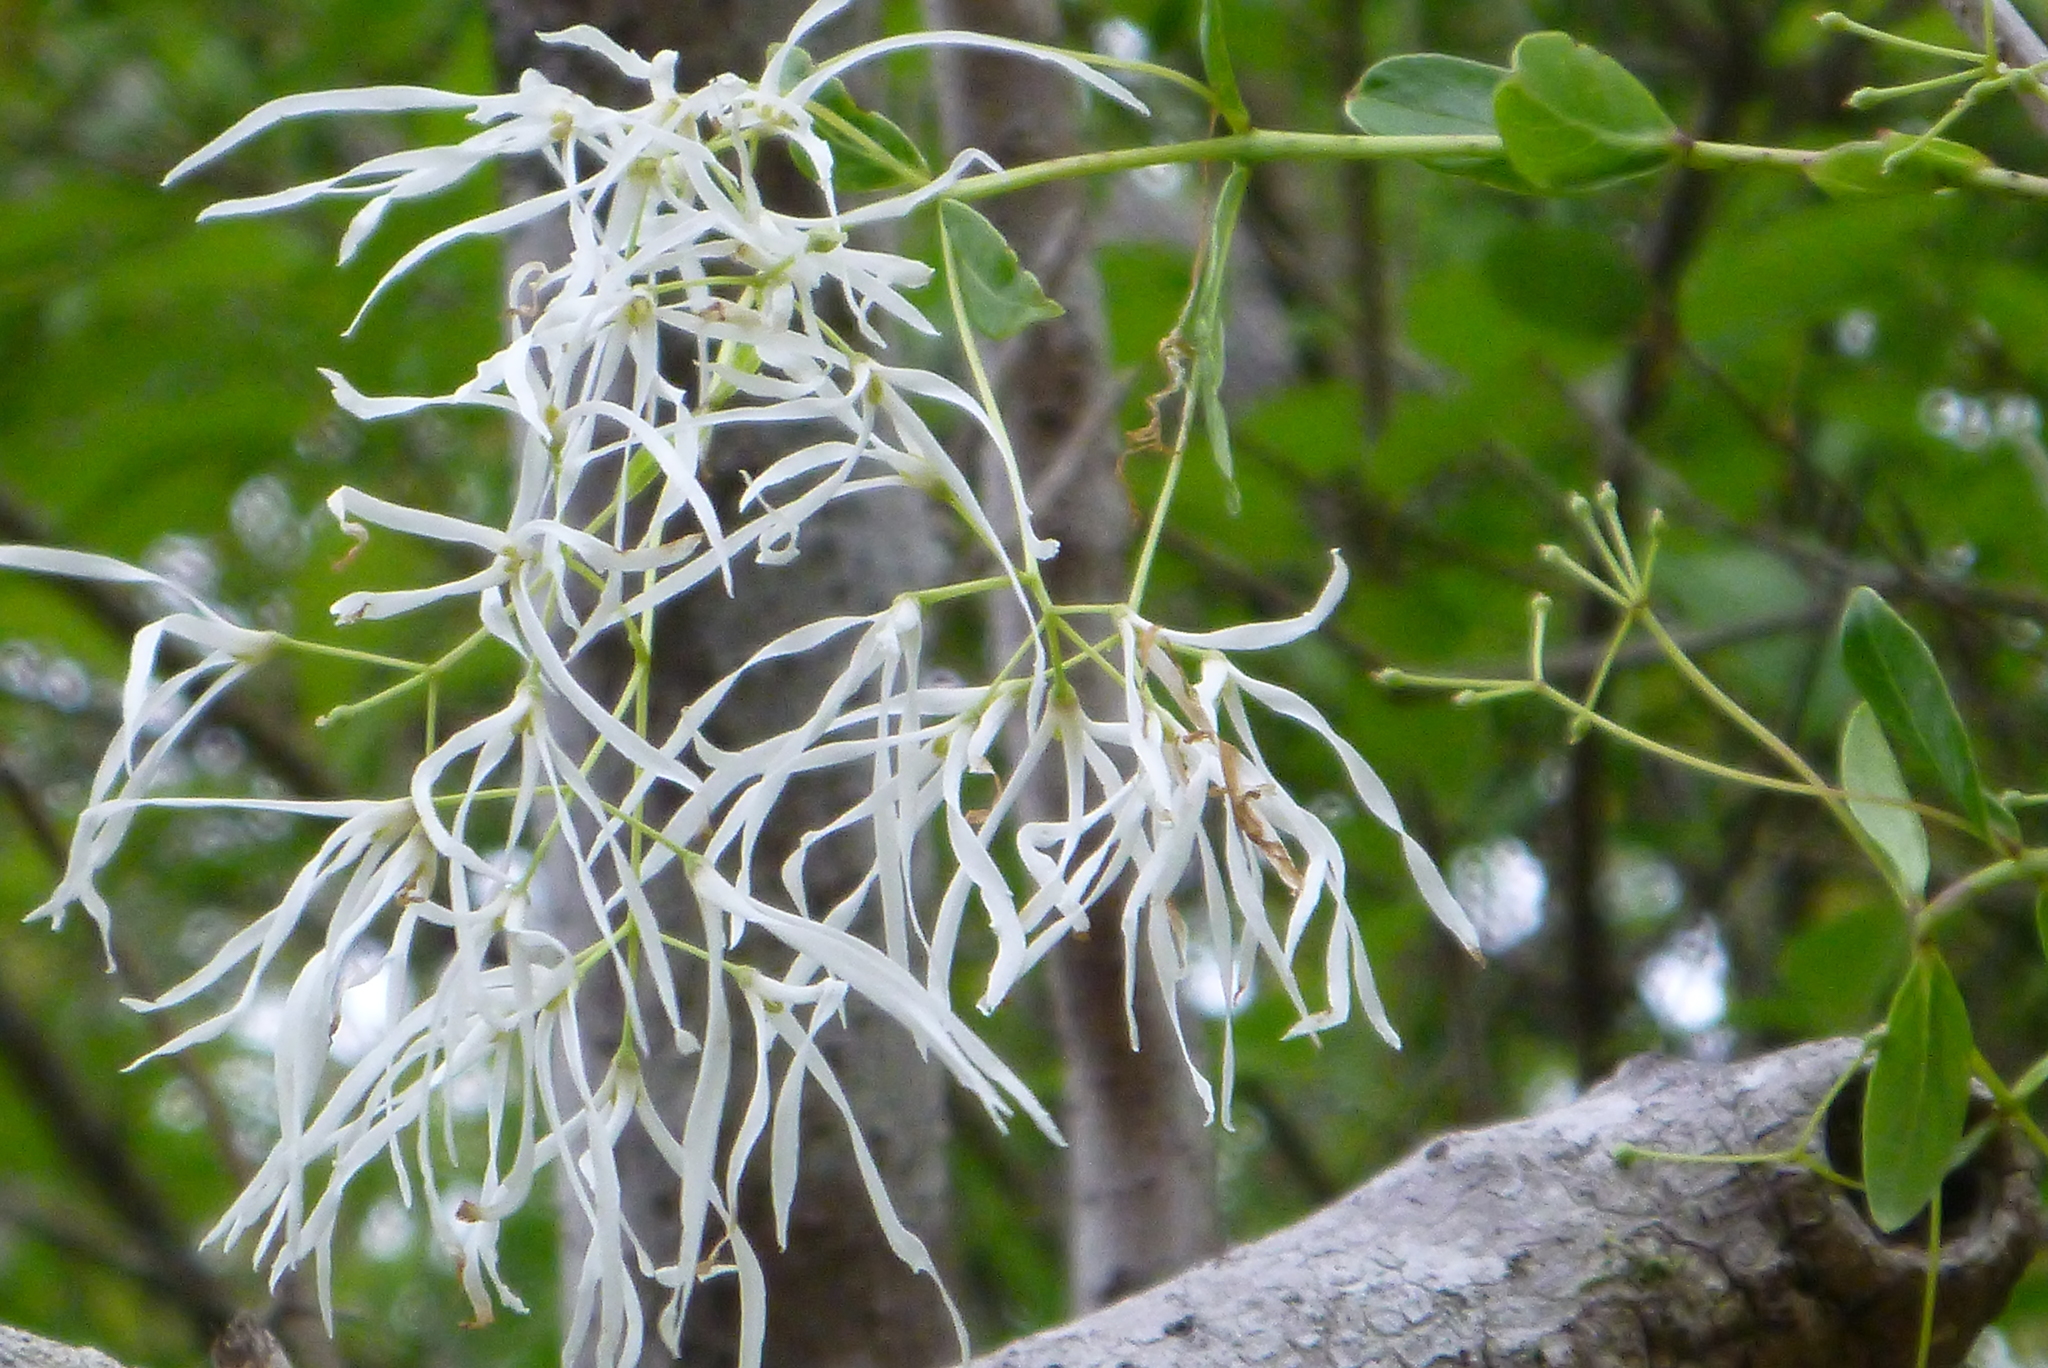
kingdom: Plantae
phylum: Tracheophyta
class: Magnoliopsida
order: Lamiales
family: Oleaceae
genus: Chionanthus
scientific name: Chionanthus virginicus
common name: American fringetree
